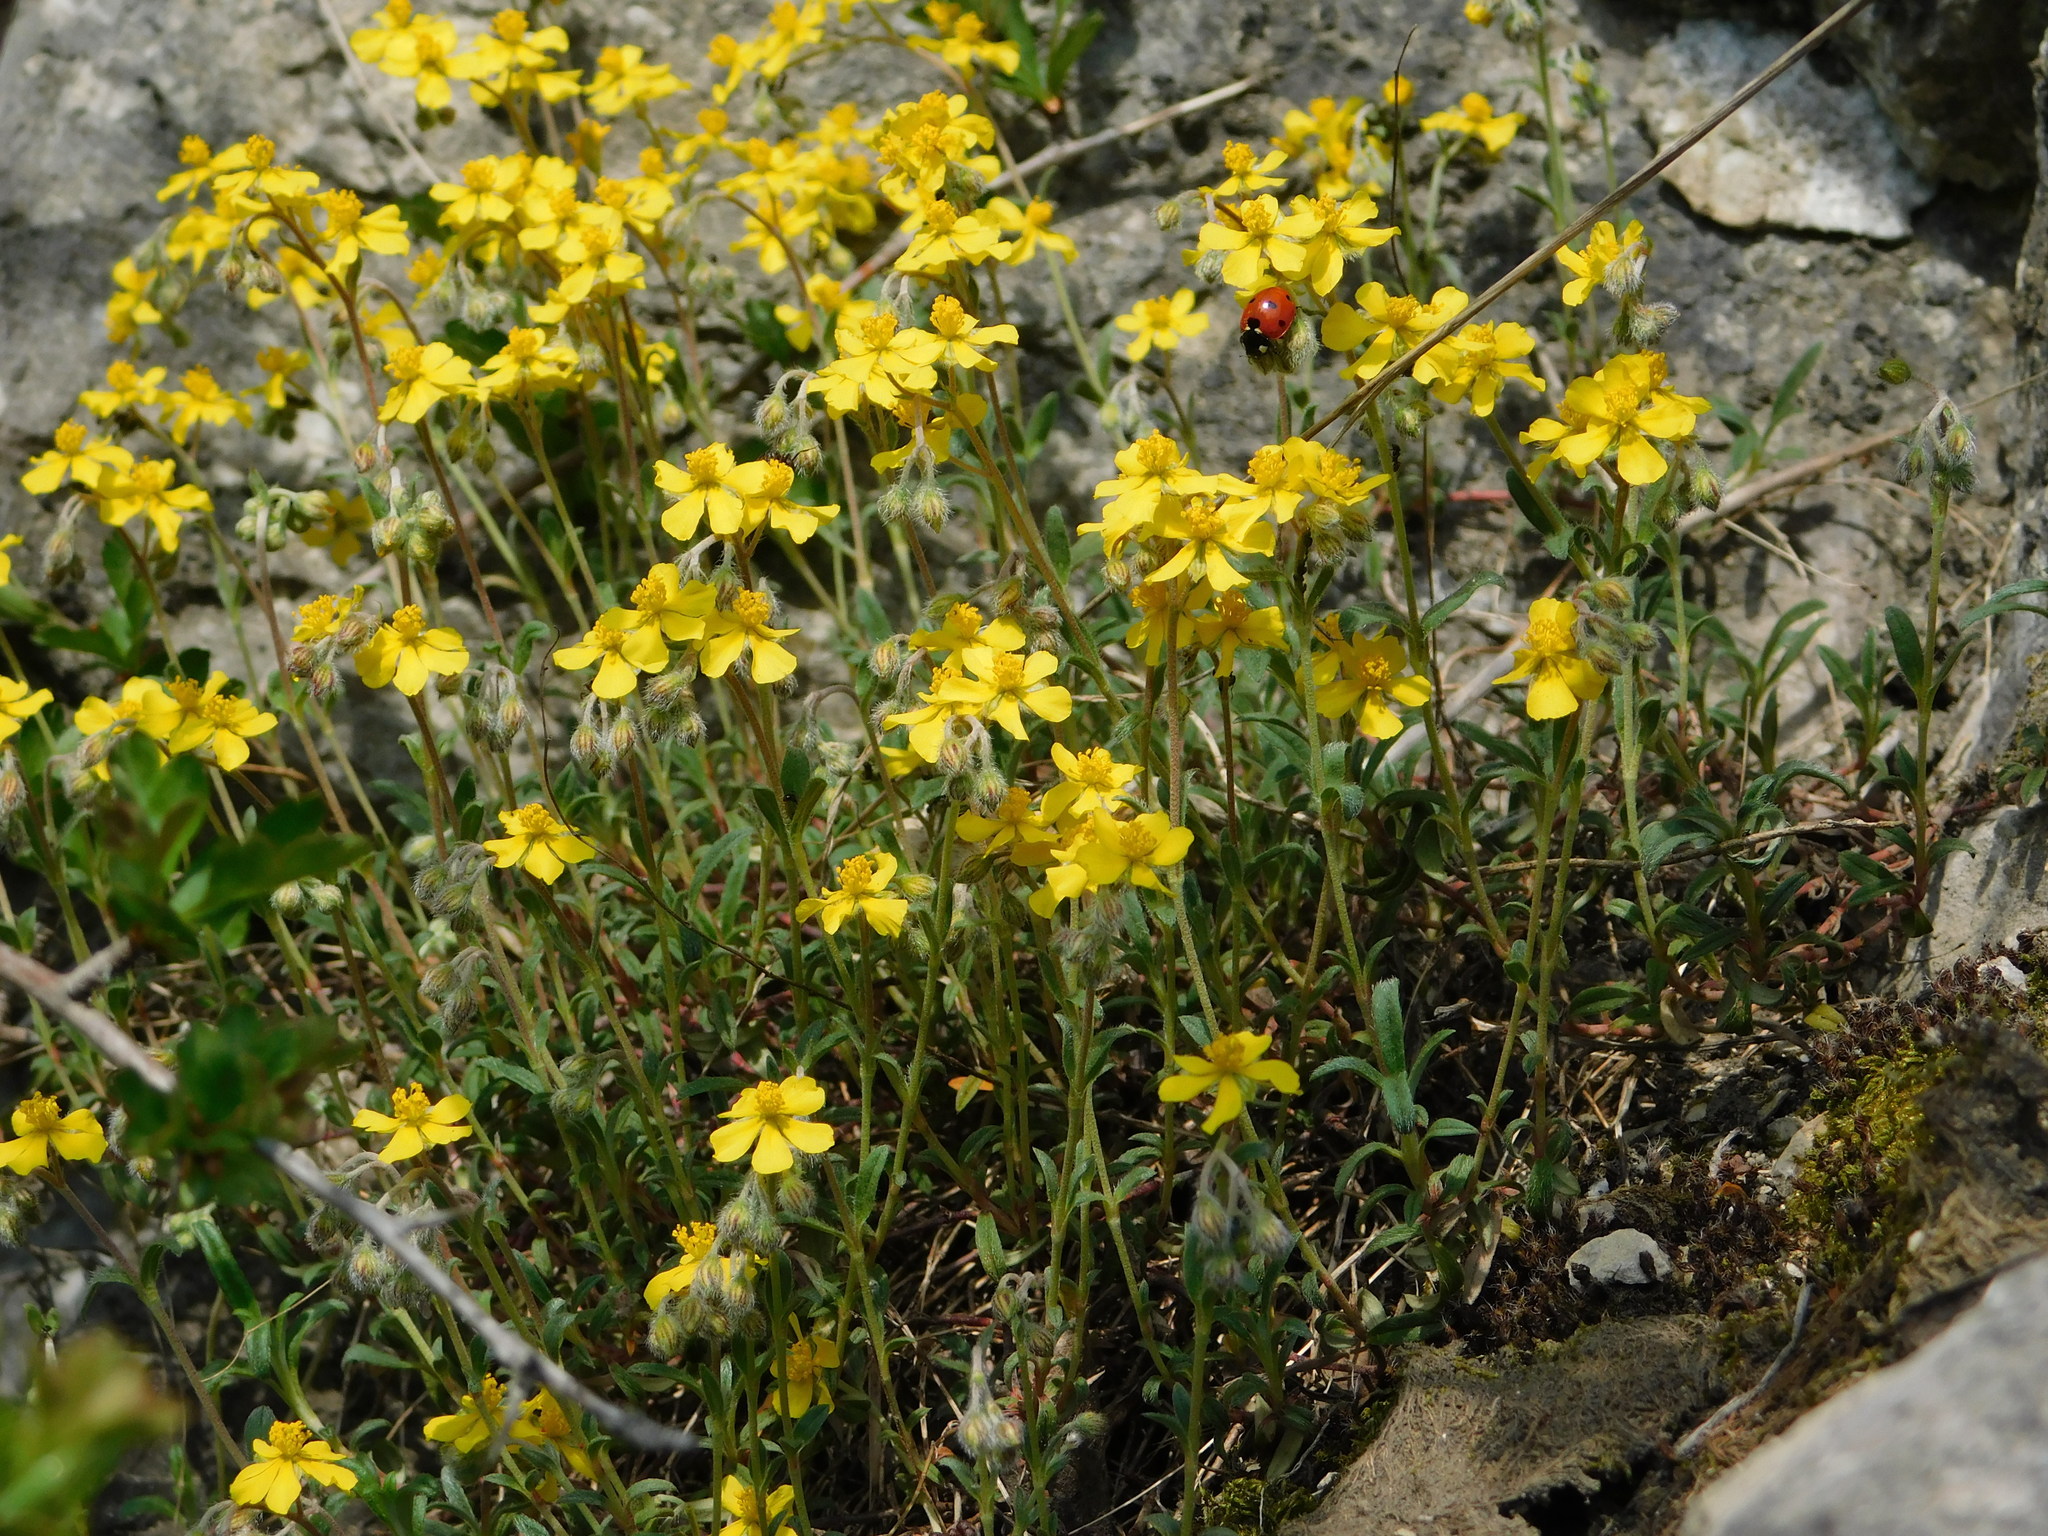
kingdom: Plantae
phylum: Tracheophyta
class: Magnoliopsida
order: Malvales
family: Cistaceae
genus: Helianthemum
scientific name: Helianthemum canum
